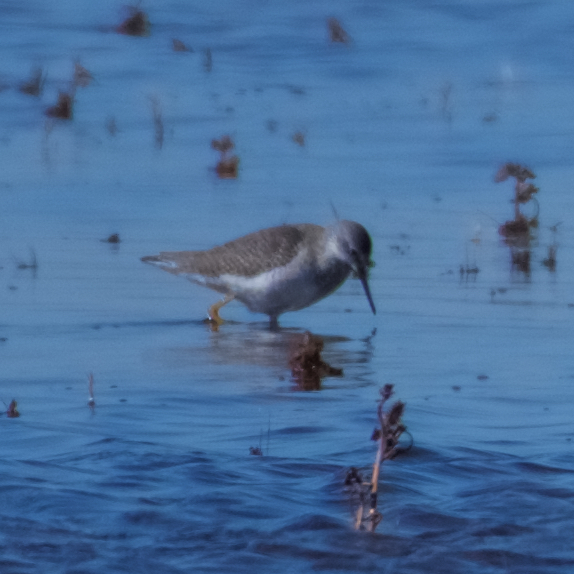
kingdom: Animalia
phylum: Chordata
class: Aves
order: Charadriiformes
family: Scolopacidae
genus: Tringa
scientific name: Tringa flavipes
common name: Lesser yellowlegs
